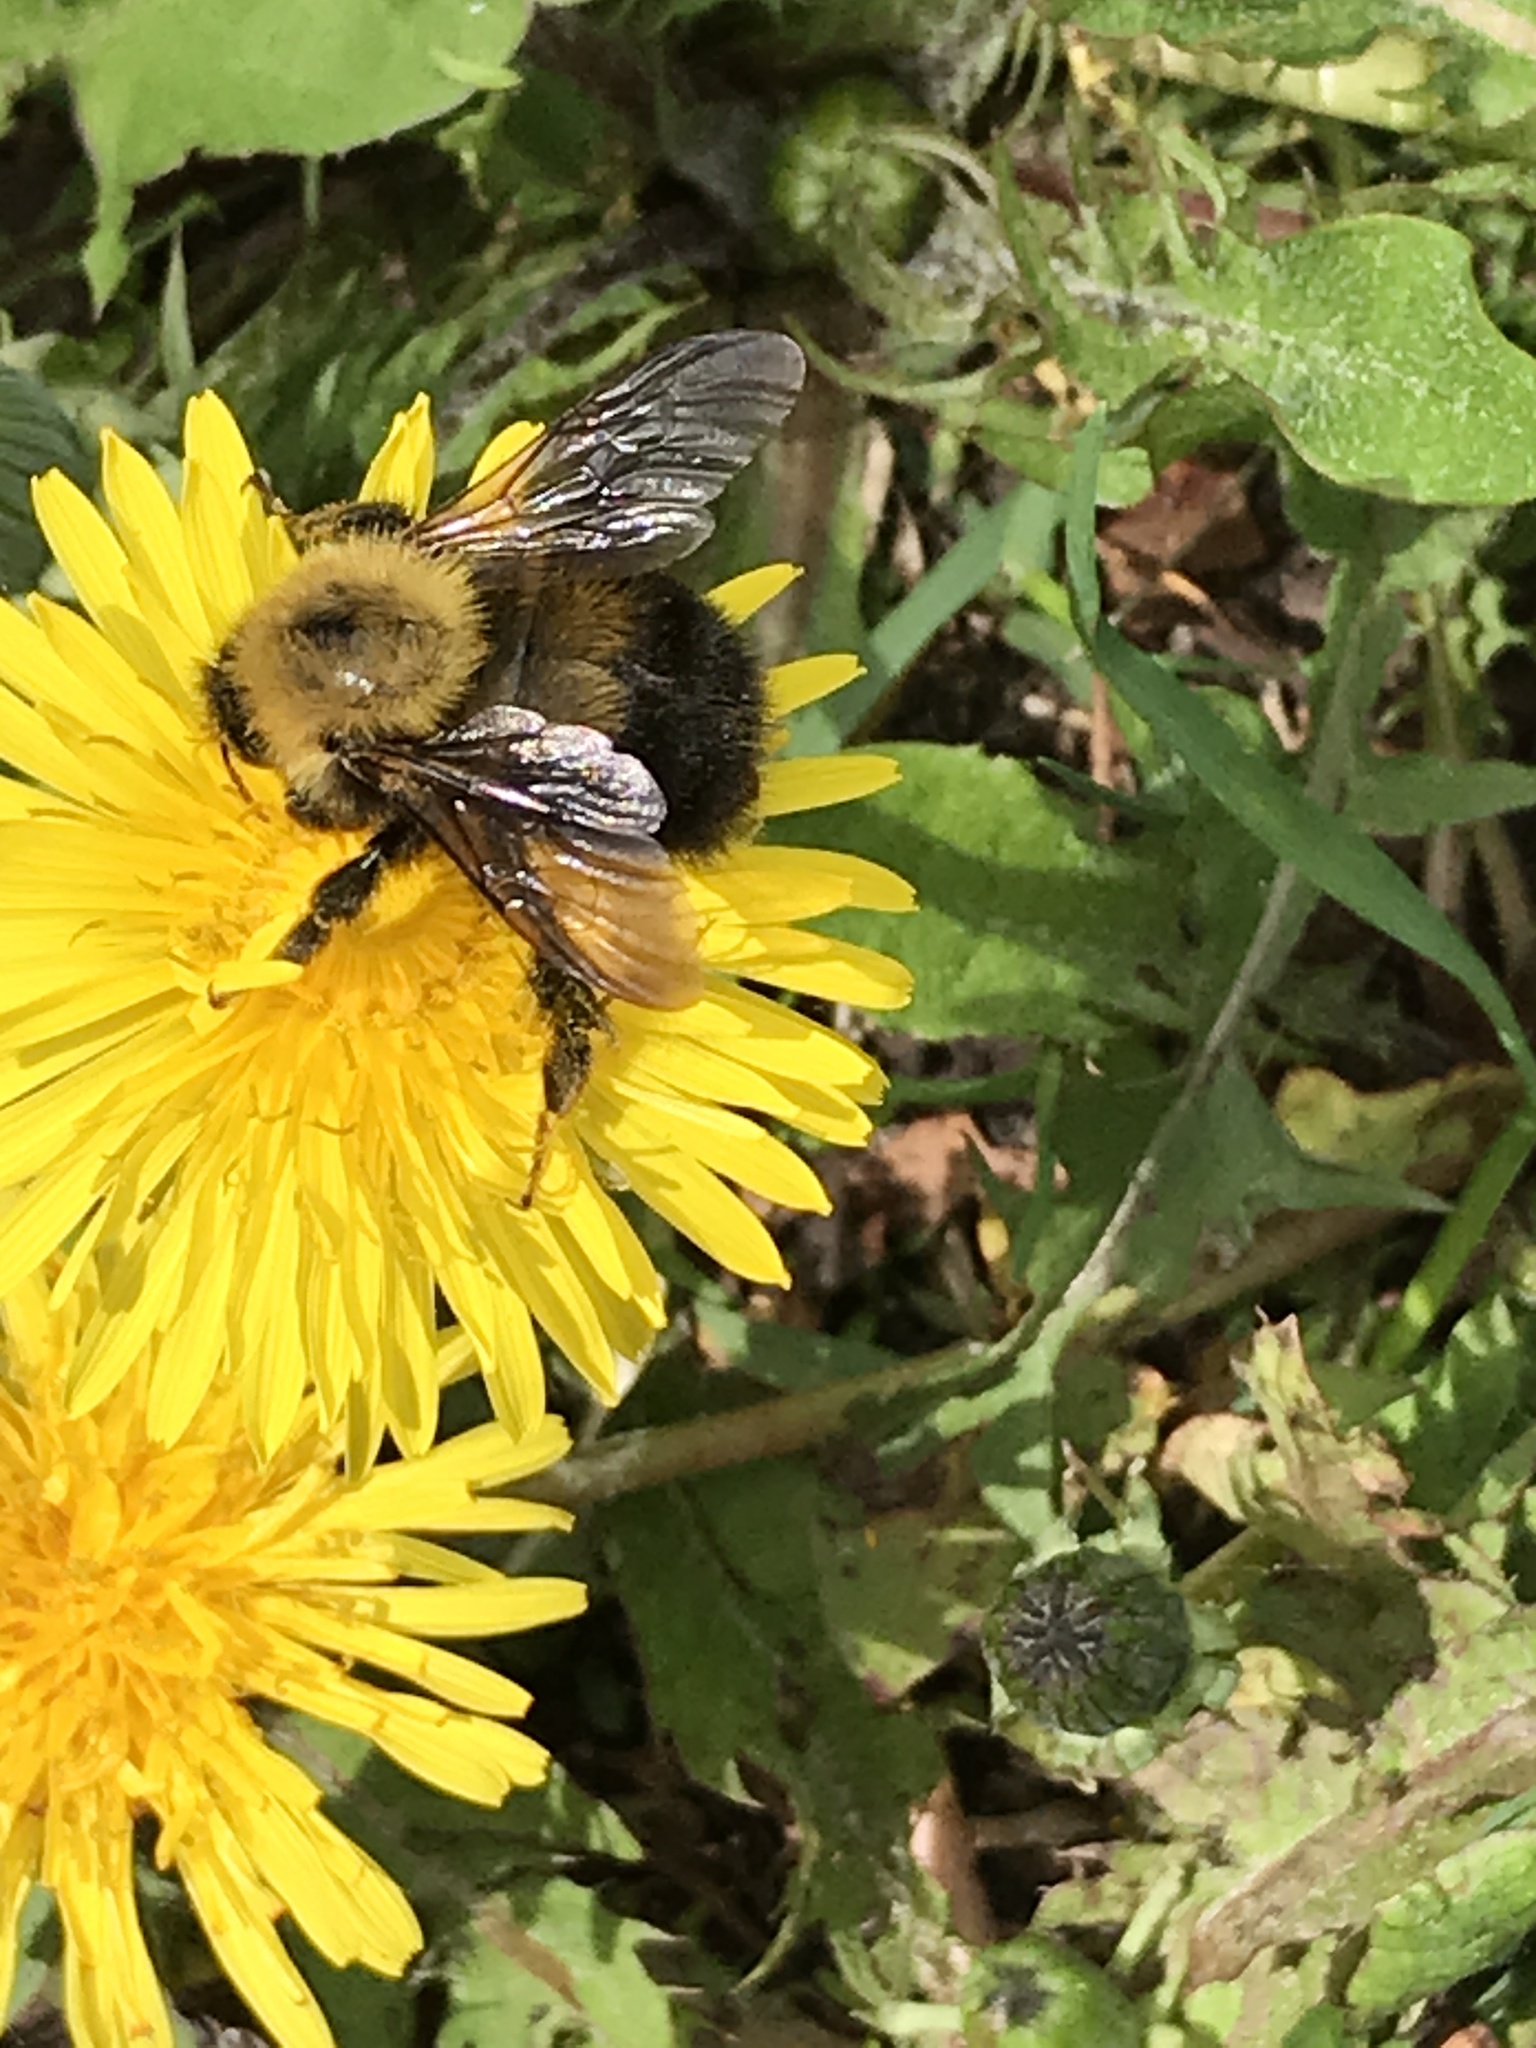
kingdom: Animalia
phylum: Arthropoda
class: Insecta
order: Hymenoptera
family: Apidae
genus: Bombus
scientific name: Bombus perplexus
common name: Confusing bumble bee
